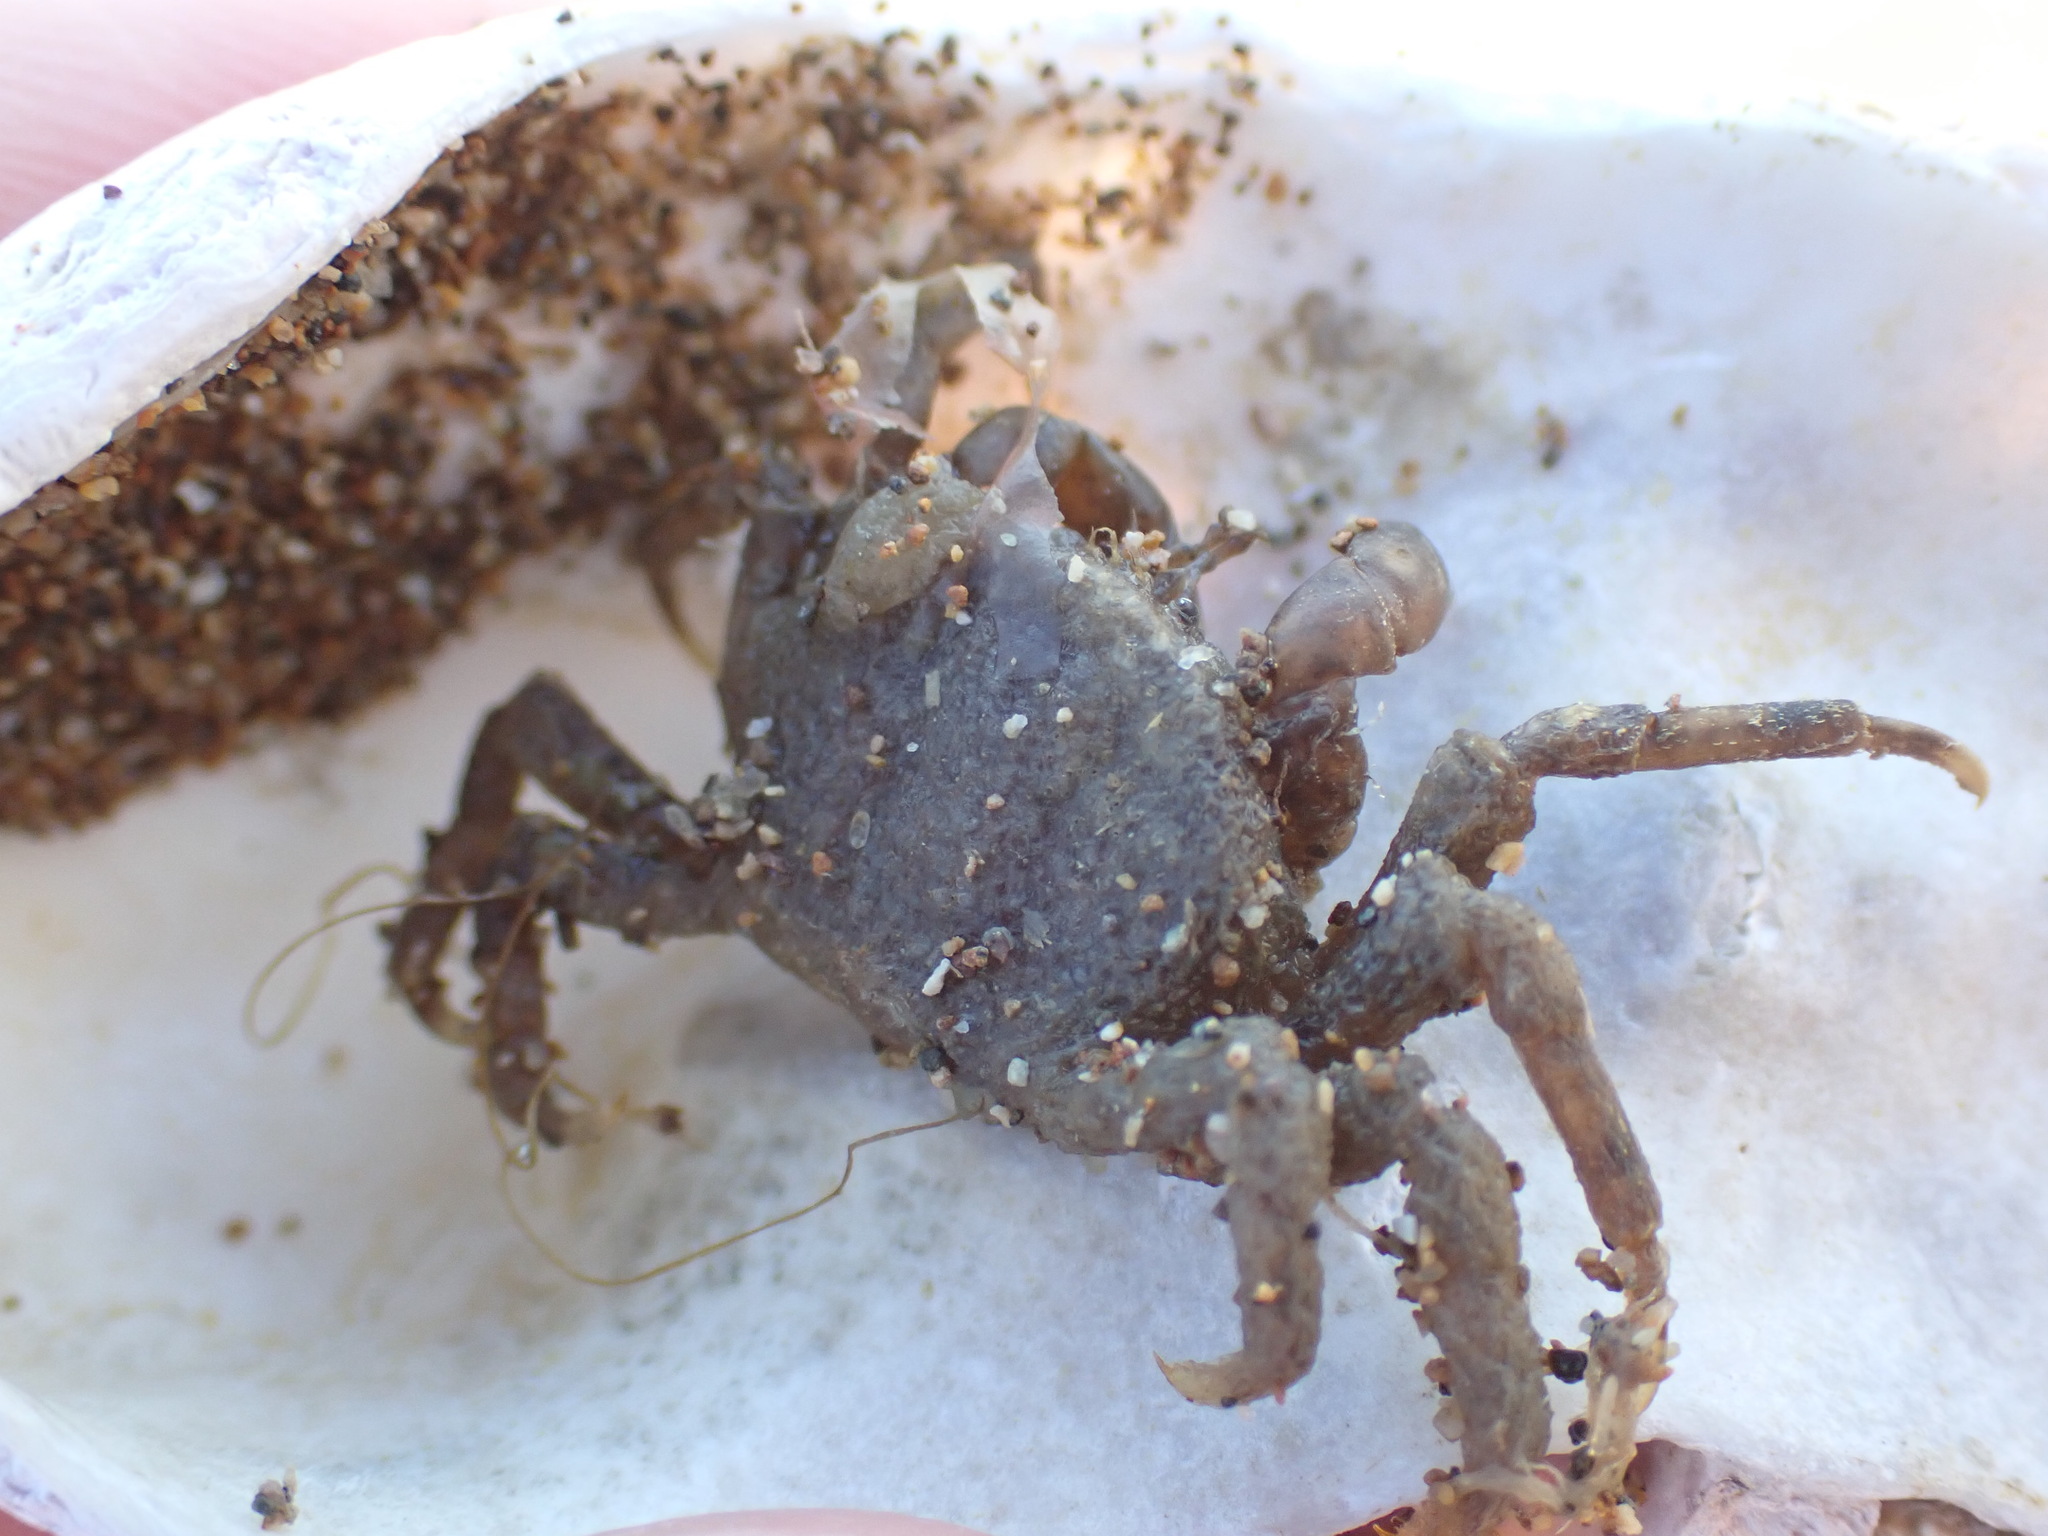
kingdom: Animalia
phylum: Arthropoda
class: Malacostraca
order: Decapoda
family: Hymenosomatidae
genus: Halicarcinus
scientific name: Halicarcinus quoyi
